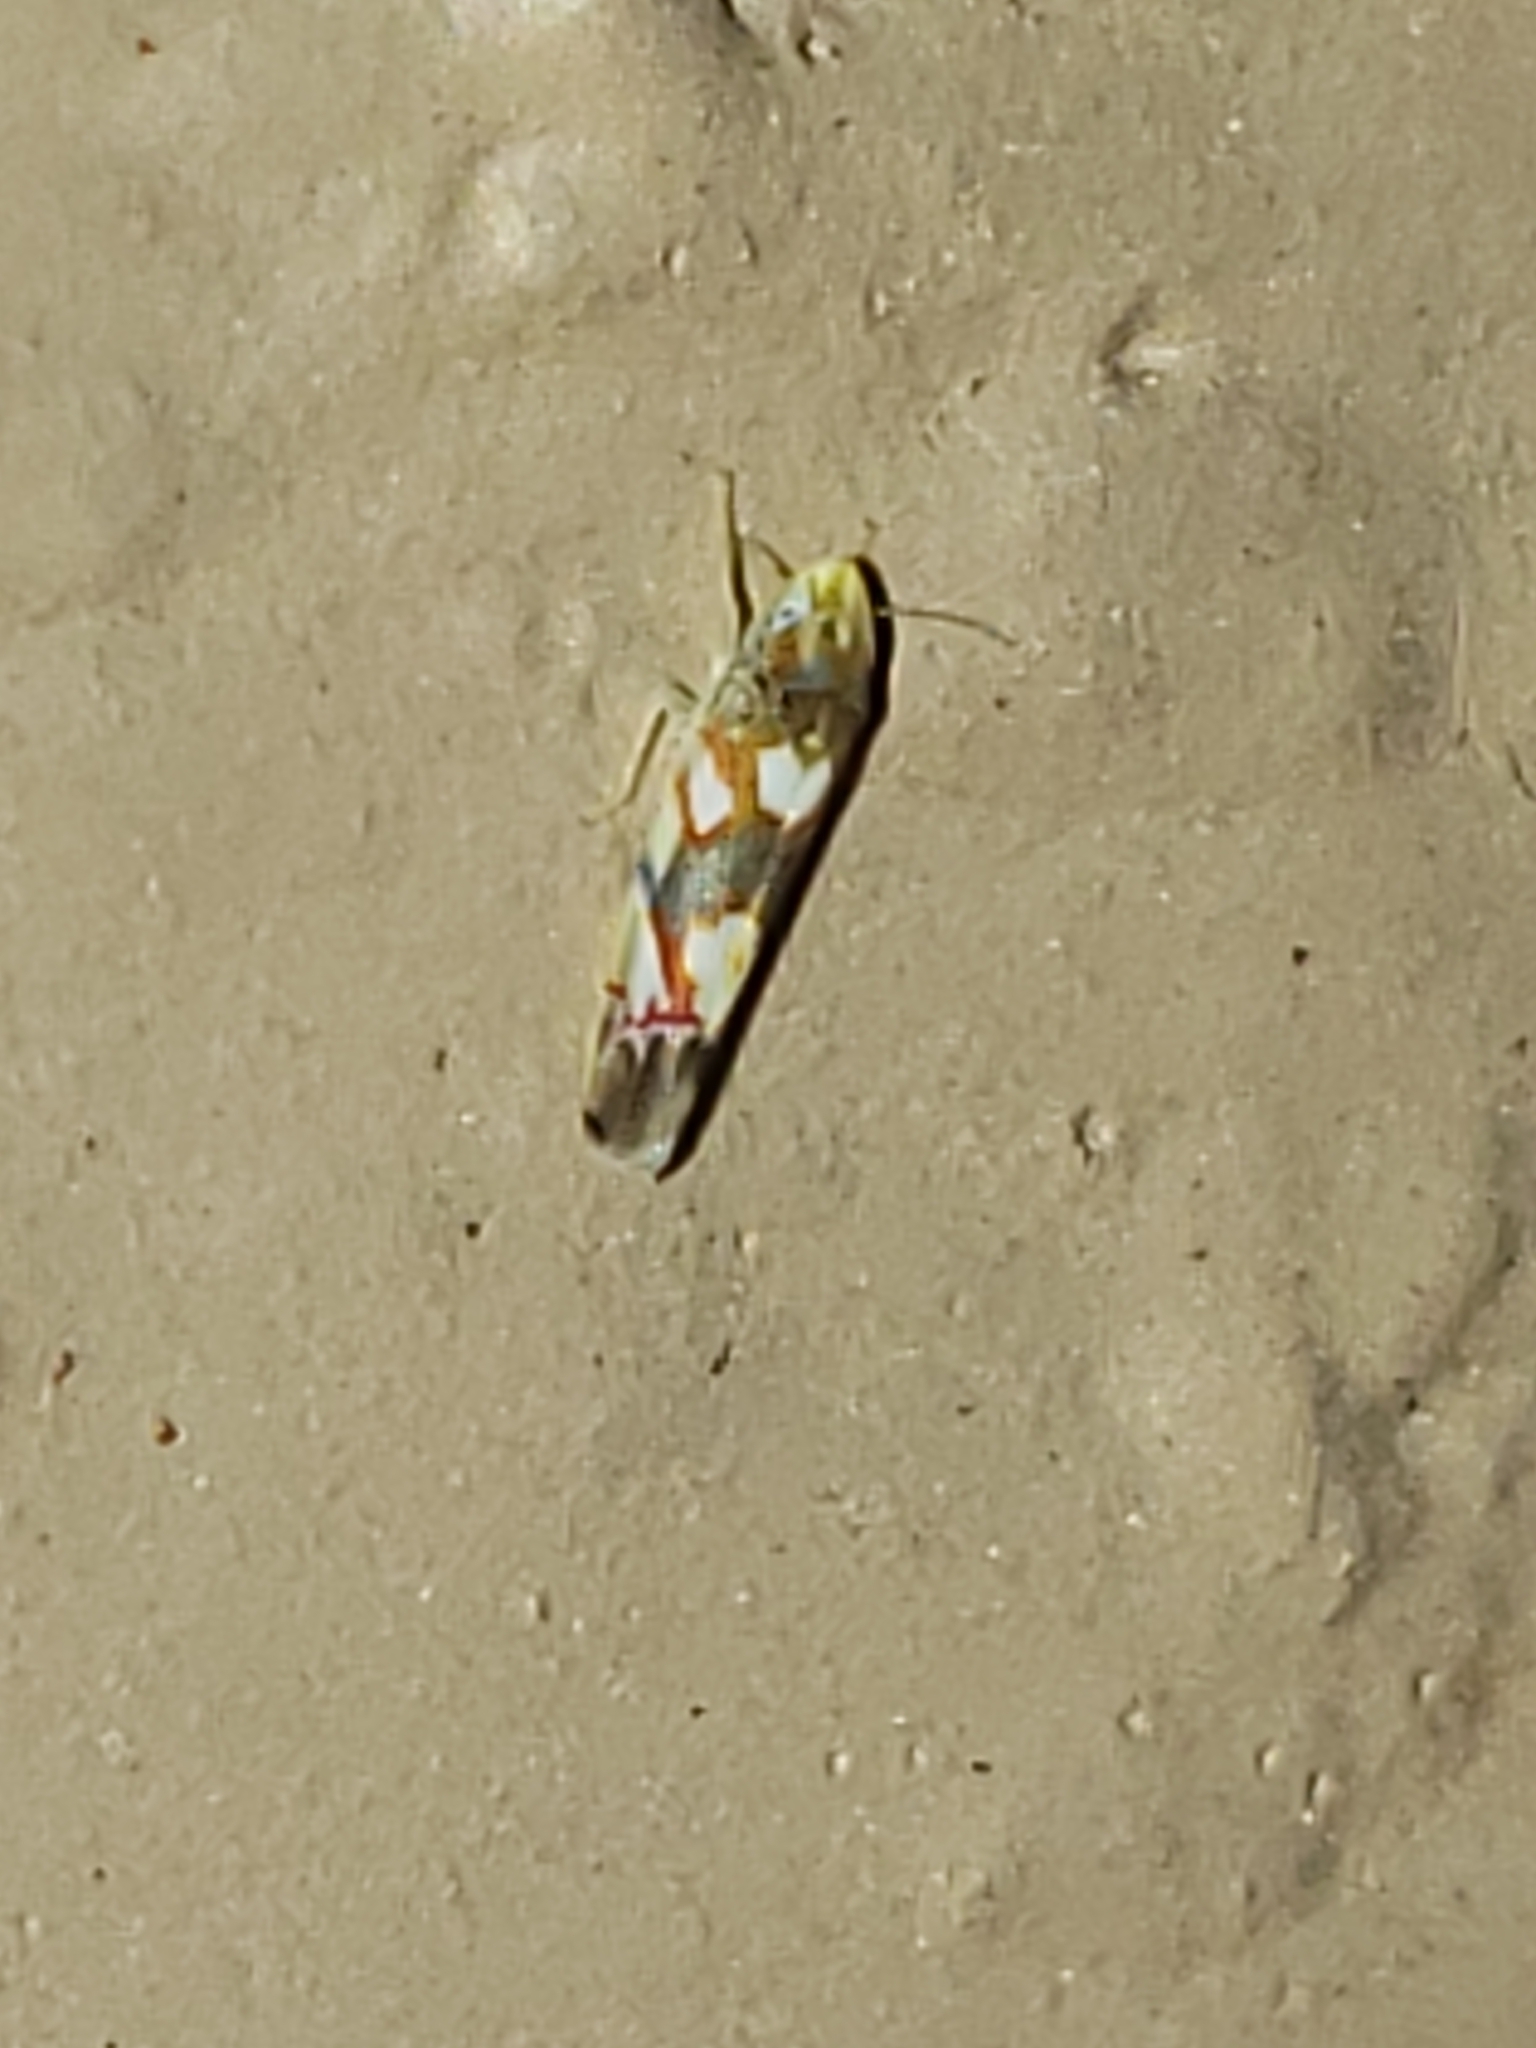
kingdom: Animalia
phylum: Arthropoda
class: Insecta
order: Hemiptera
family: Cicadellidae
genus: Erythroneura
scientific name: Erythroneura elegans
